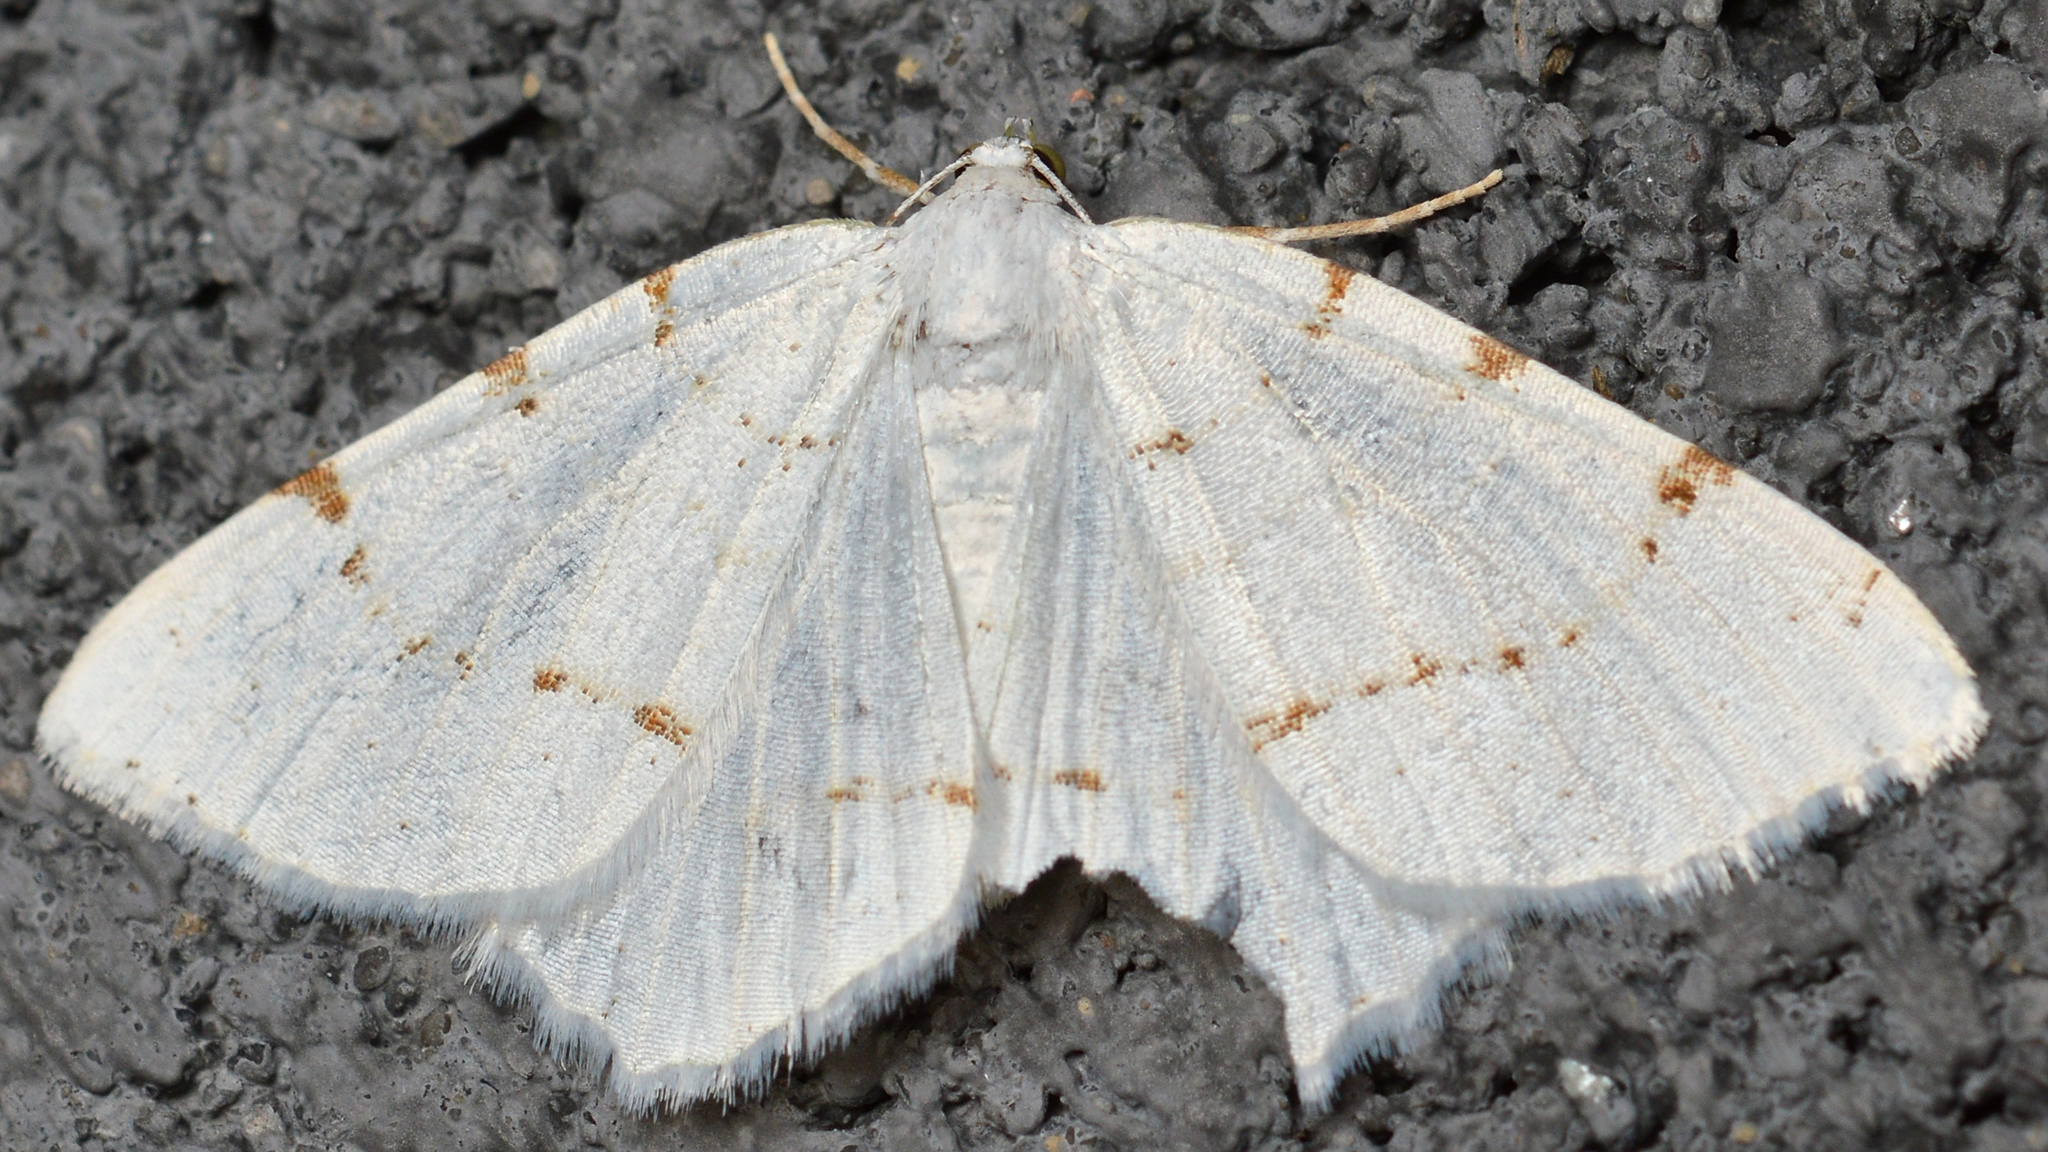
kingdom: Animalia
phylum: Arthropoda
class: Insecta
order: Lepidoptera
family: Geometridae
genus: Macaria
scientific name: Macaria pustularia
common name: Lesser maple spanworm moth
